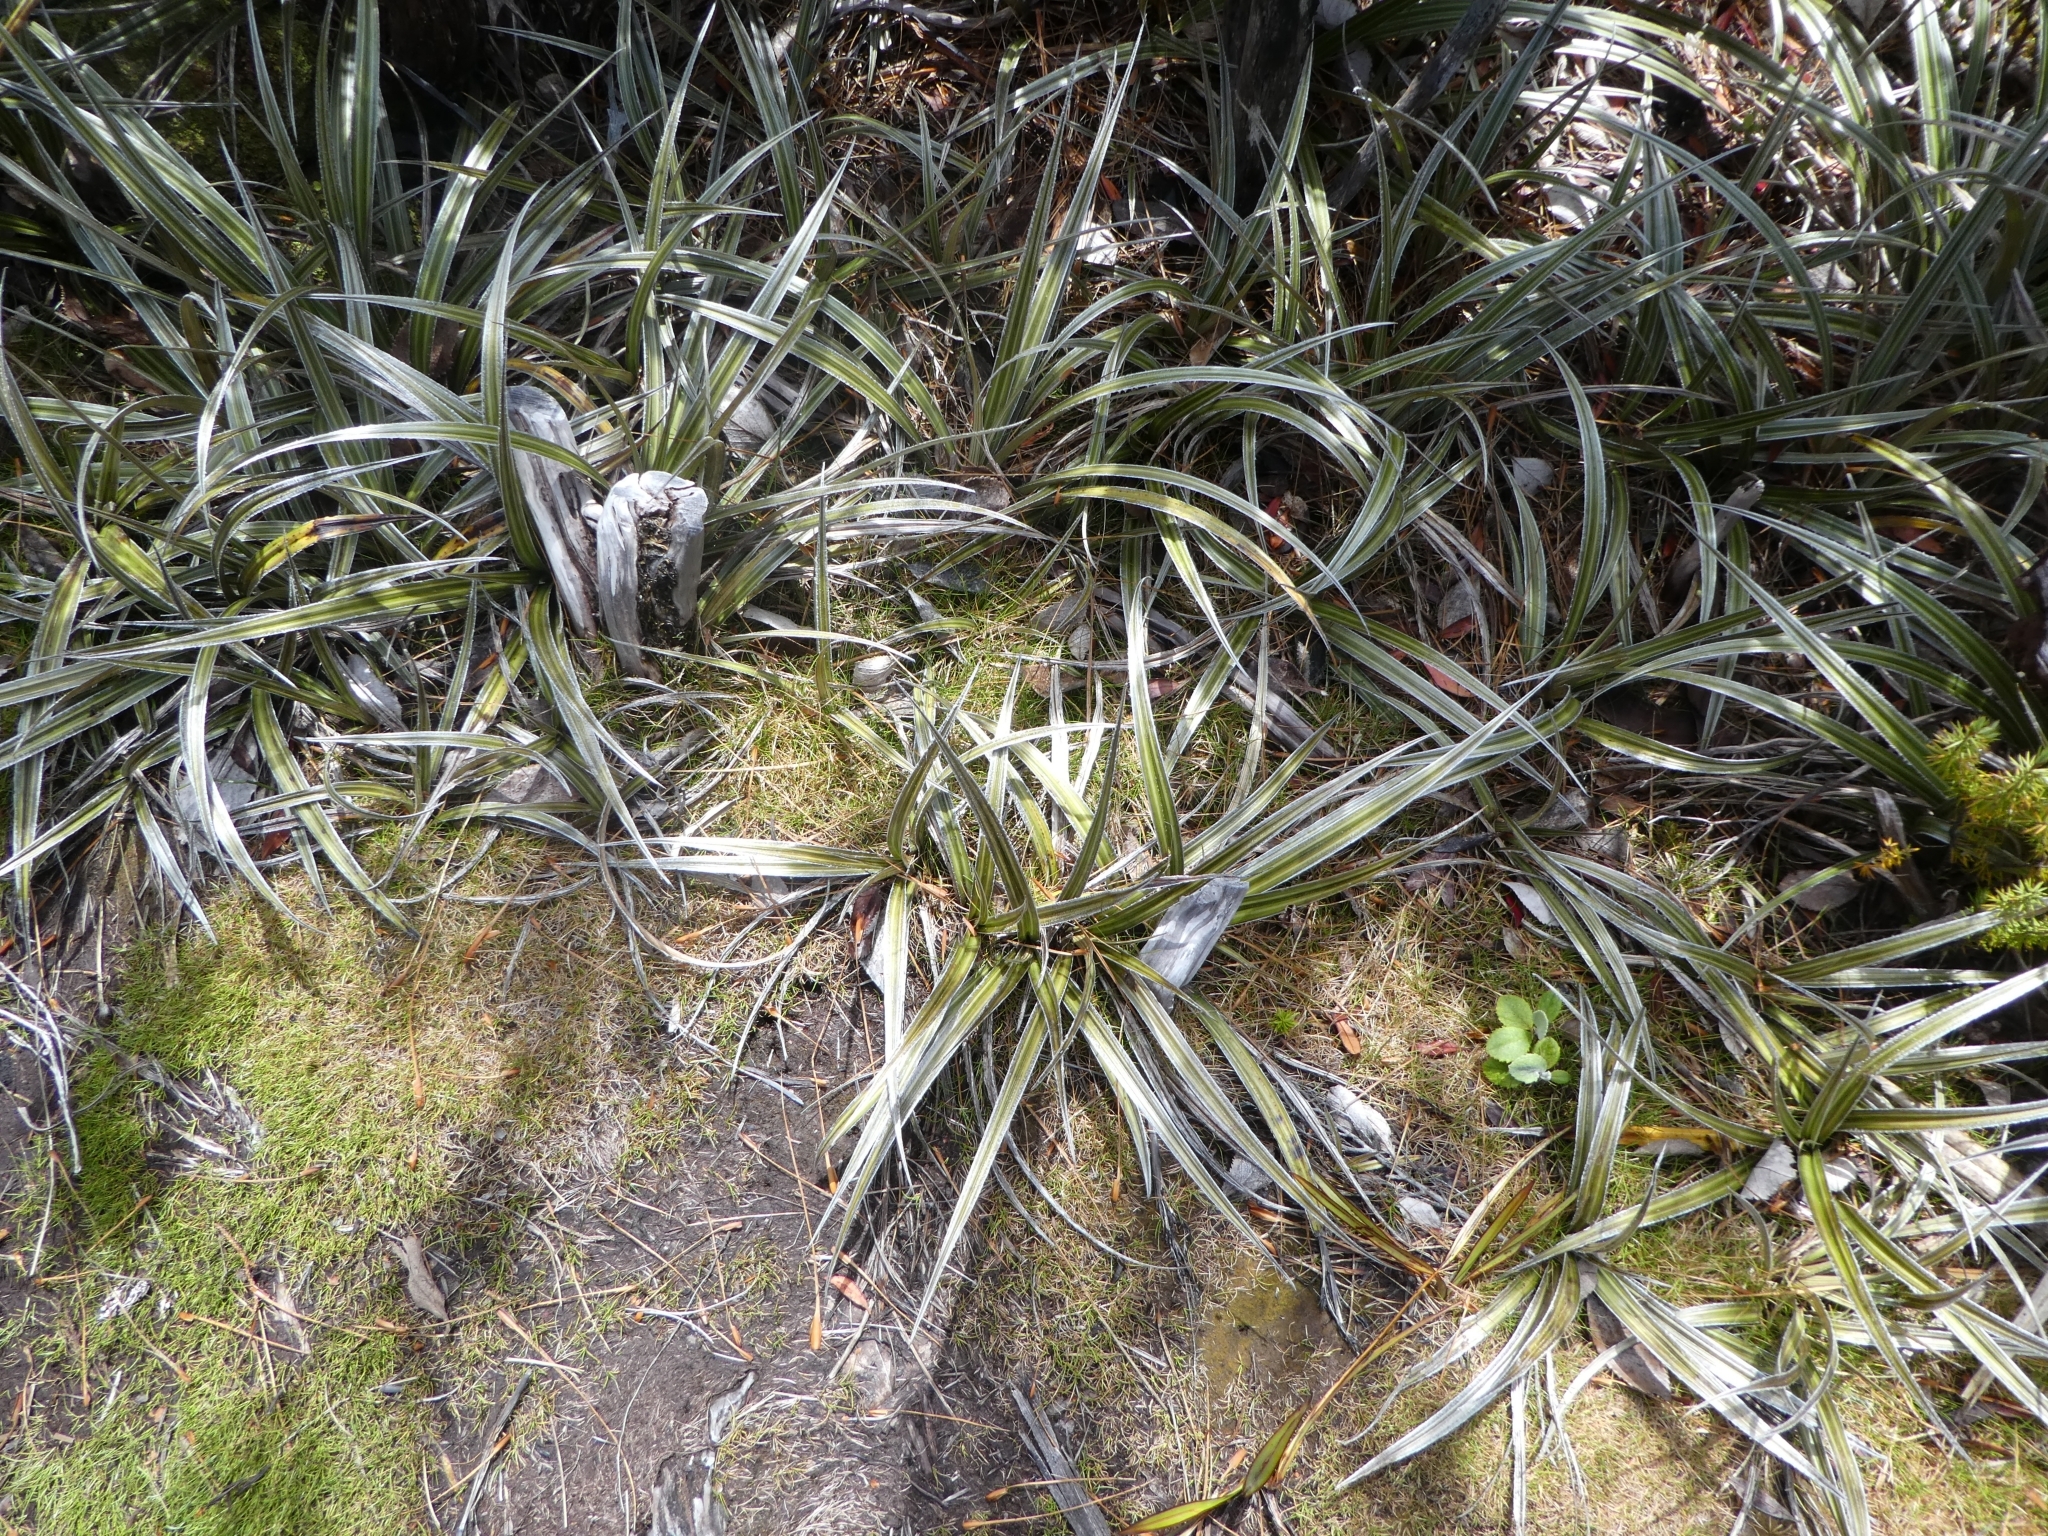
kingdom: Plantae
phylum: Tracheophyta
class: Liliopsida
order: Asparagales
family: Asteliaceae
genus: Astelia
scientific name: Astelia nervosa
